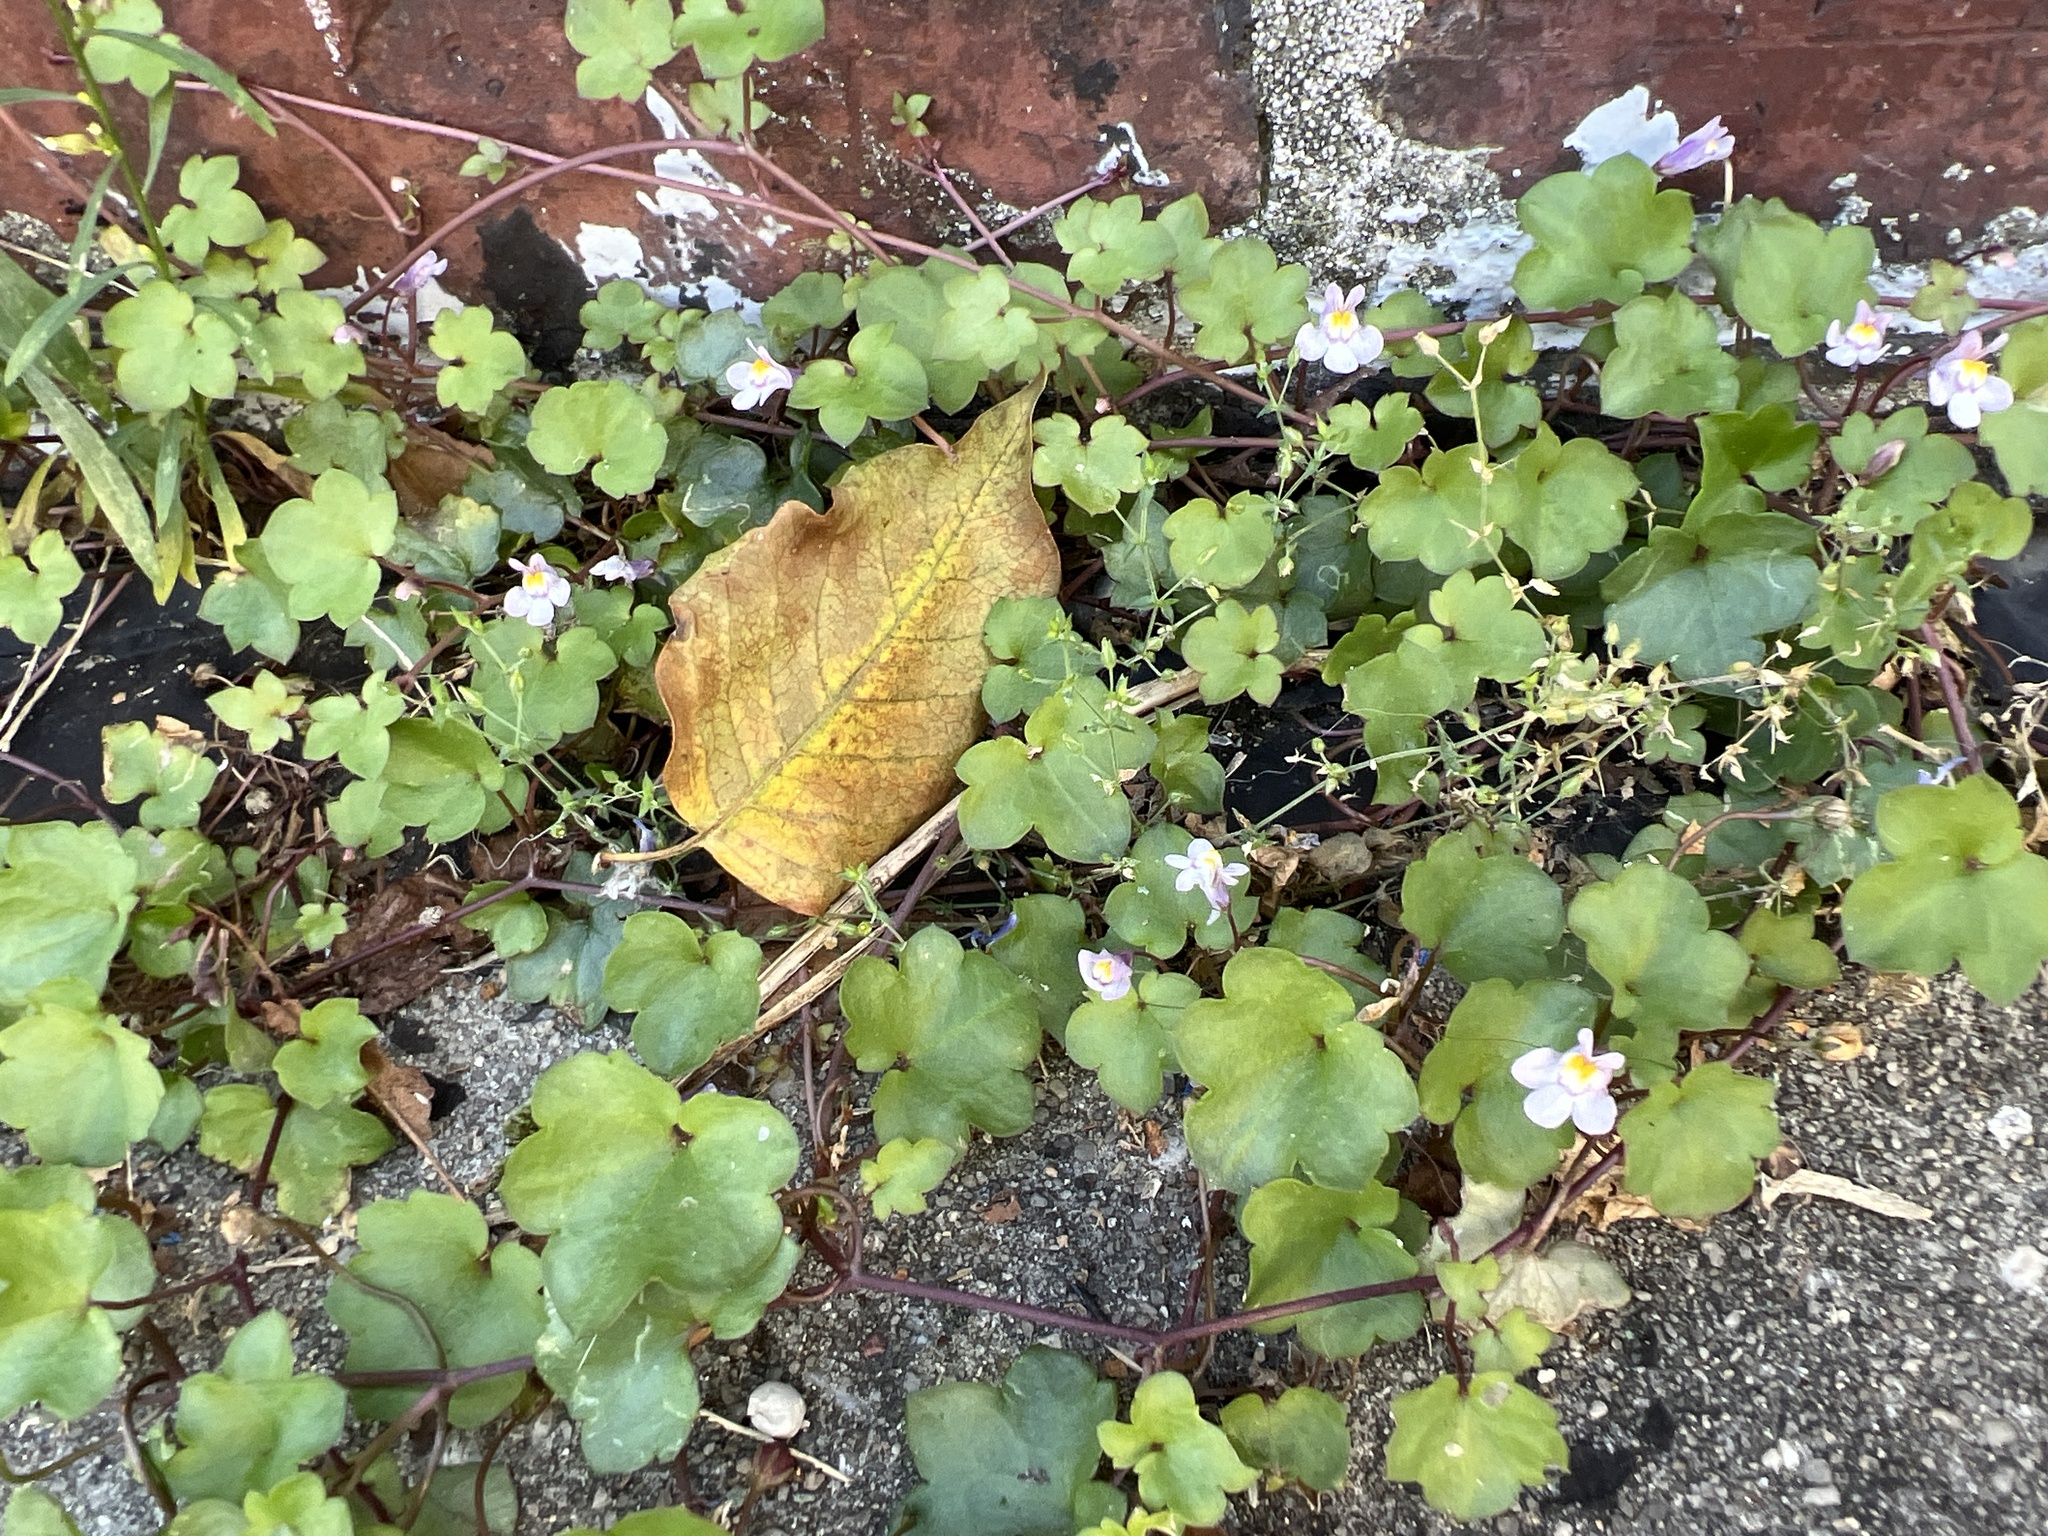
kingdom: Plantae
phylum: Tracheophyta
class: Magnoliopsida
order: Lamiales
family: Plantaginaceae
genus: Cymbalaria
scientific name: Cymbalaria muralis
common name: Ivy-leaved toadflax
